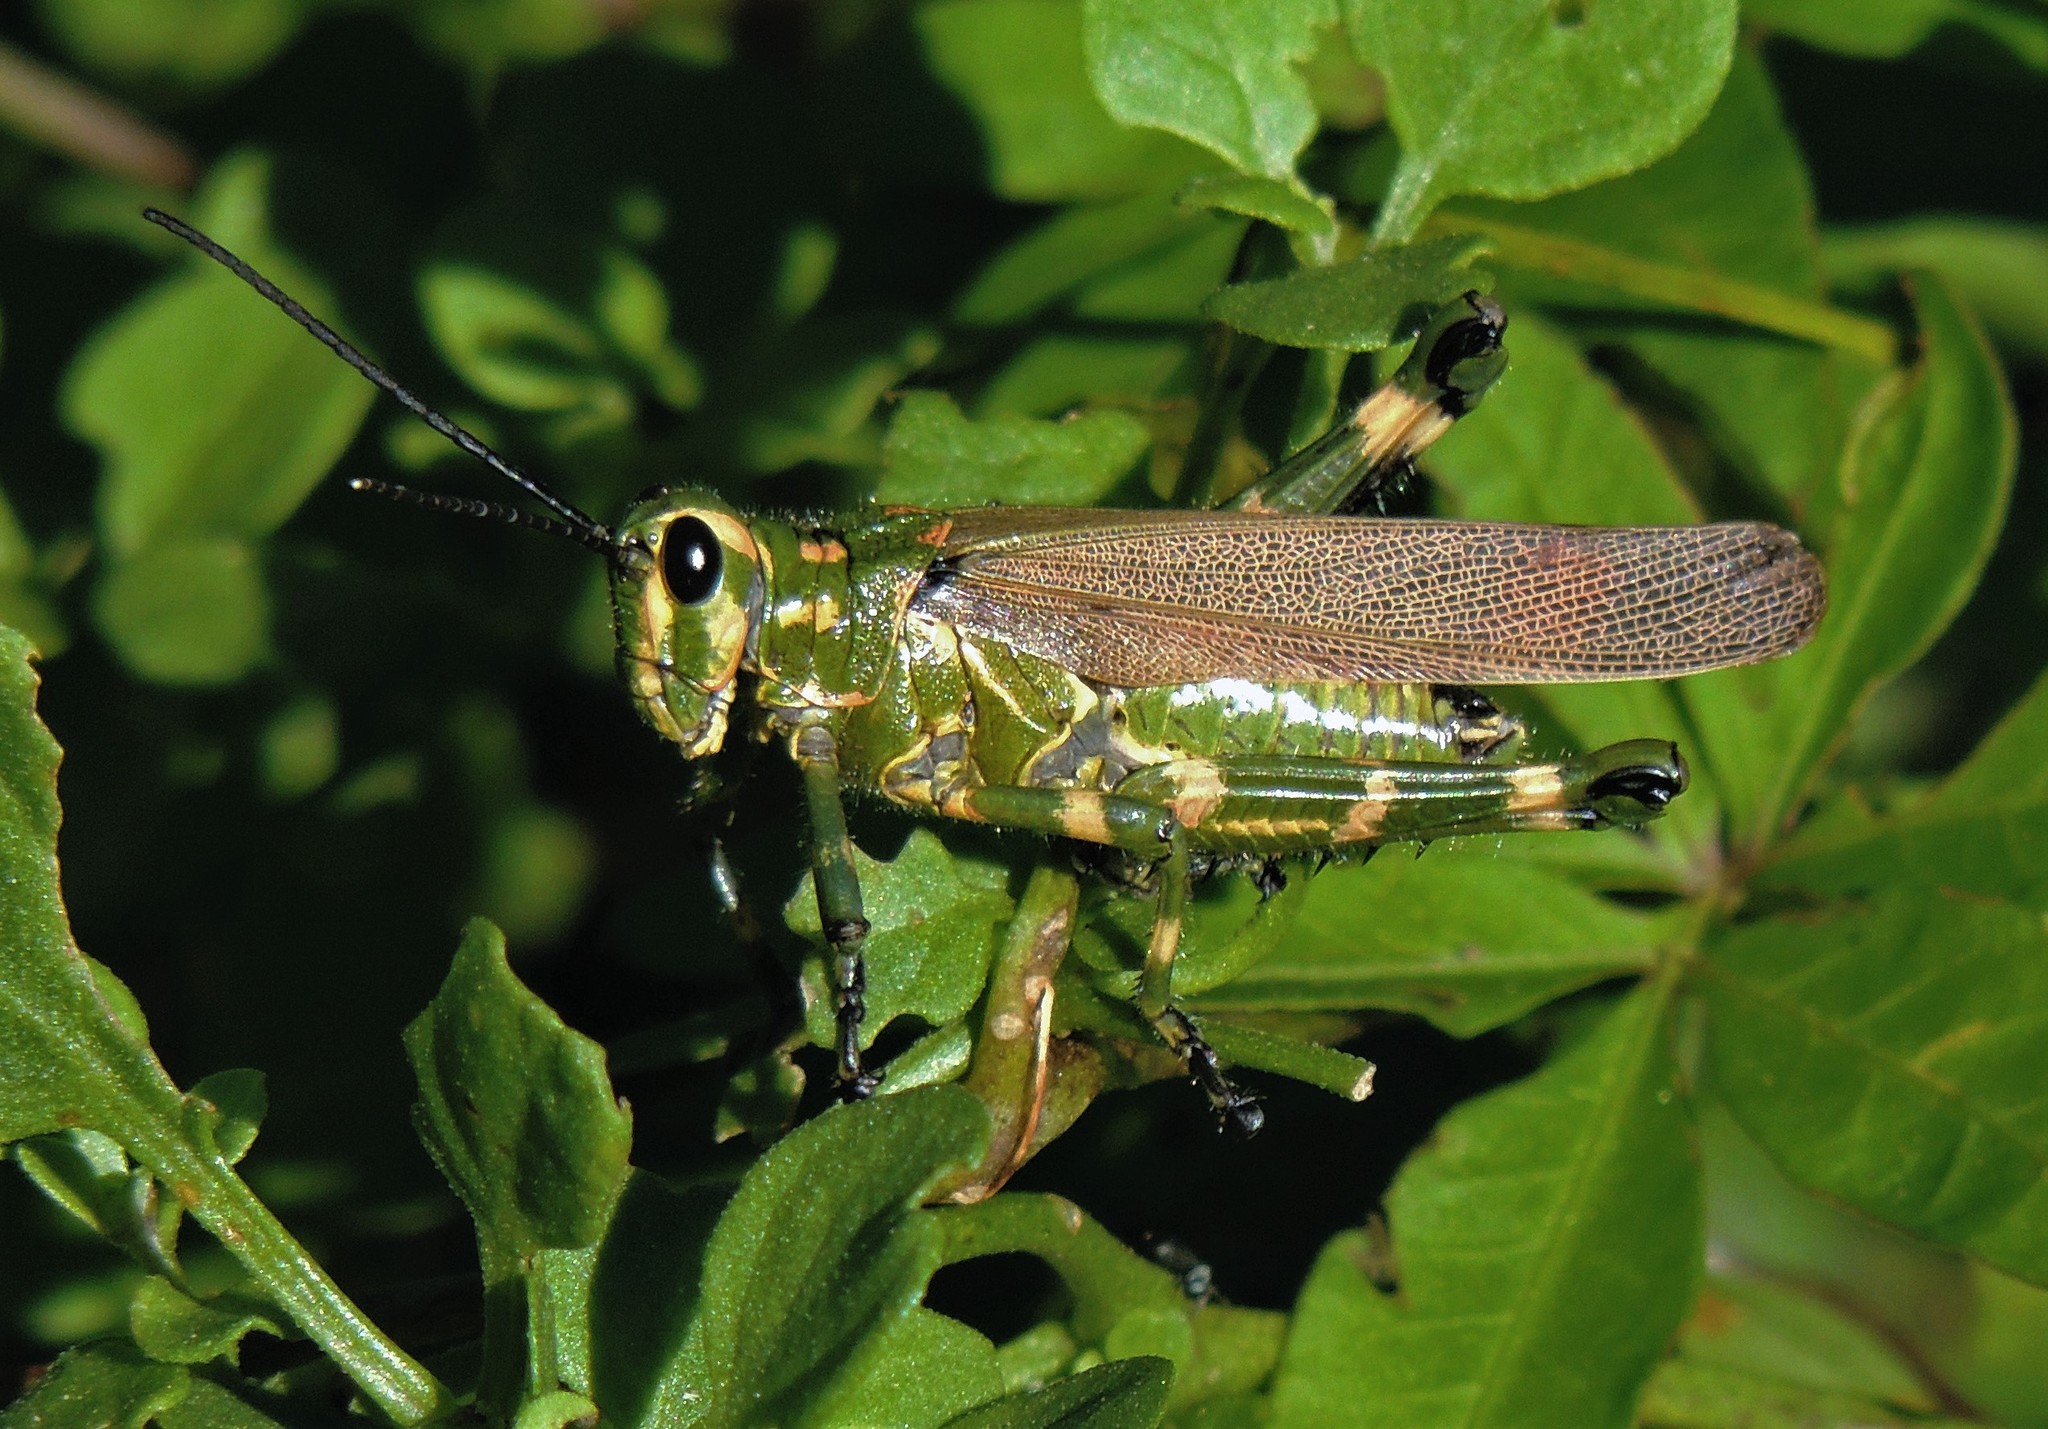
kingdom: Animalia
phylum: Arthropoda
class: Insecta
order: Orthoptera
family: Romaleidae
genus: Chromacris
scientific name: Chromacris speciosa
